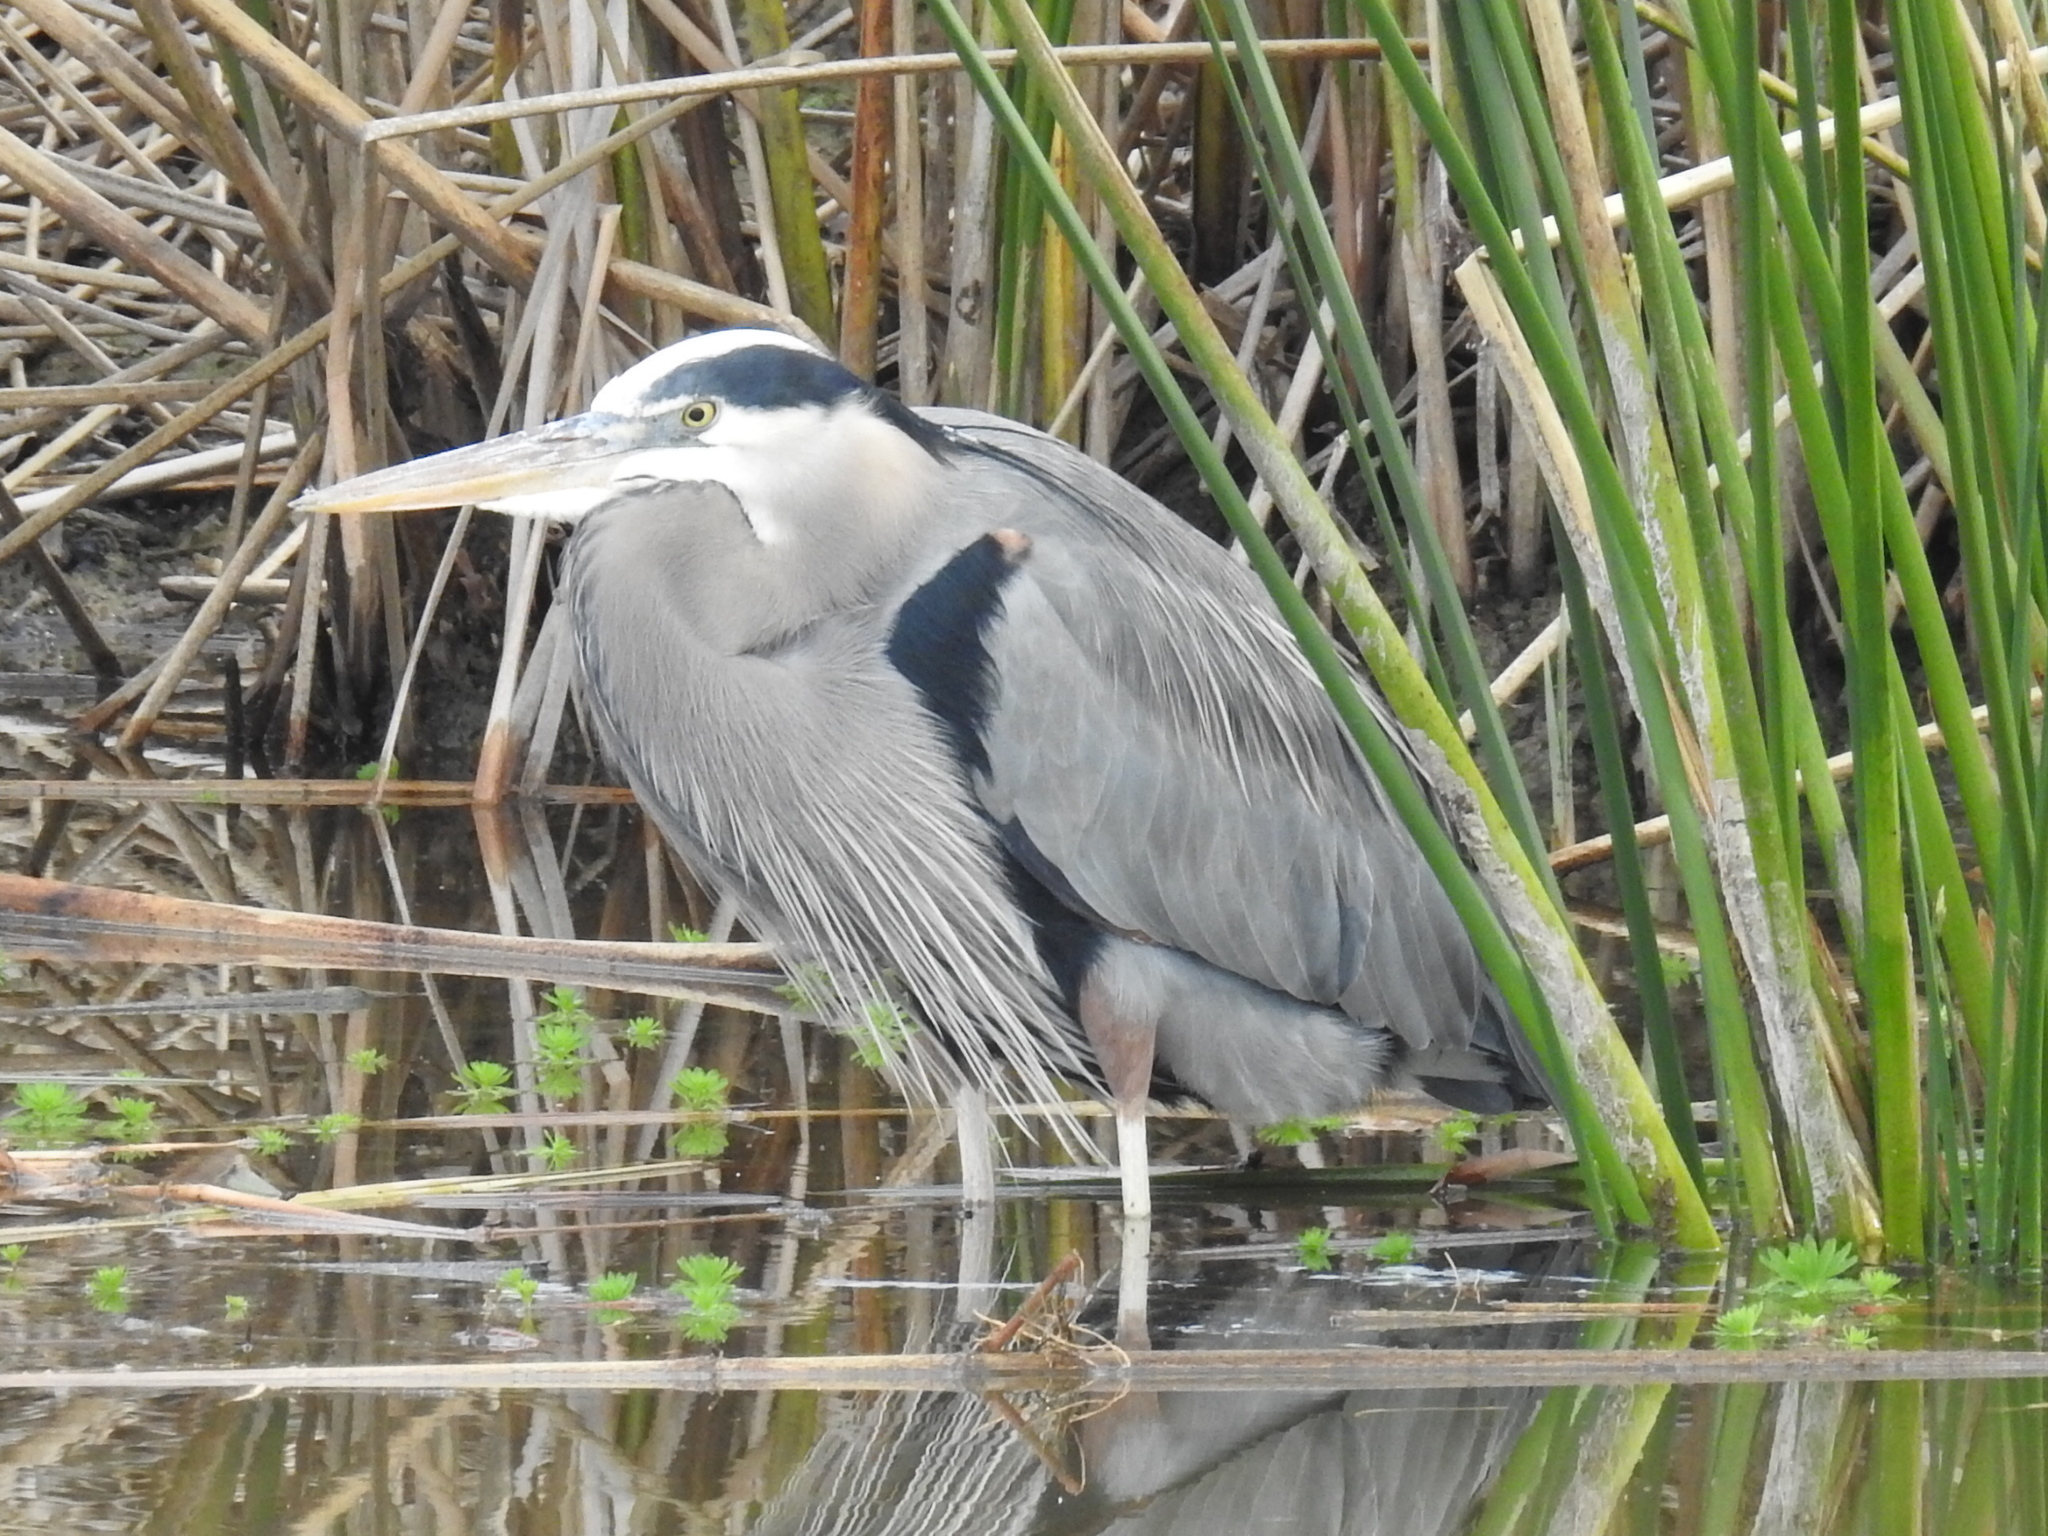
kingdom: Animalia
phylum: Chordata
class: Aves
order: Pelecaniformes
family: Ardeidae
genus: Ardea
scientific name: Ardea herodias
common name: Great blue heron
